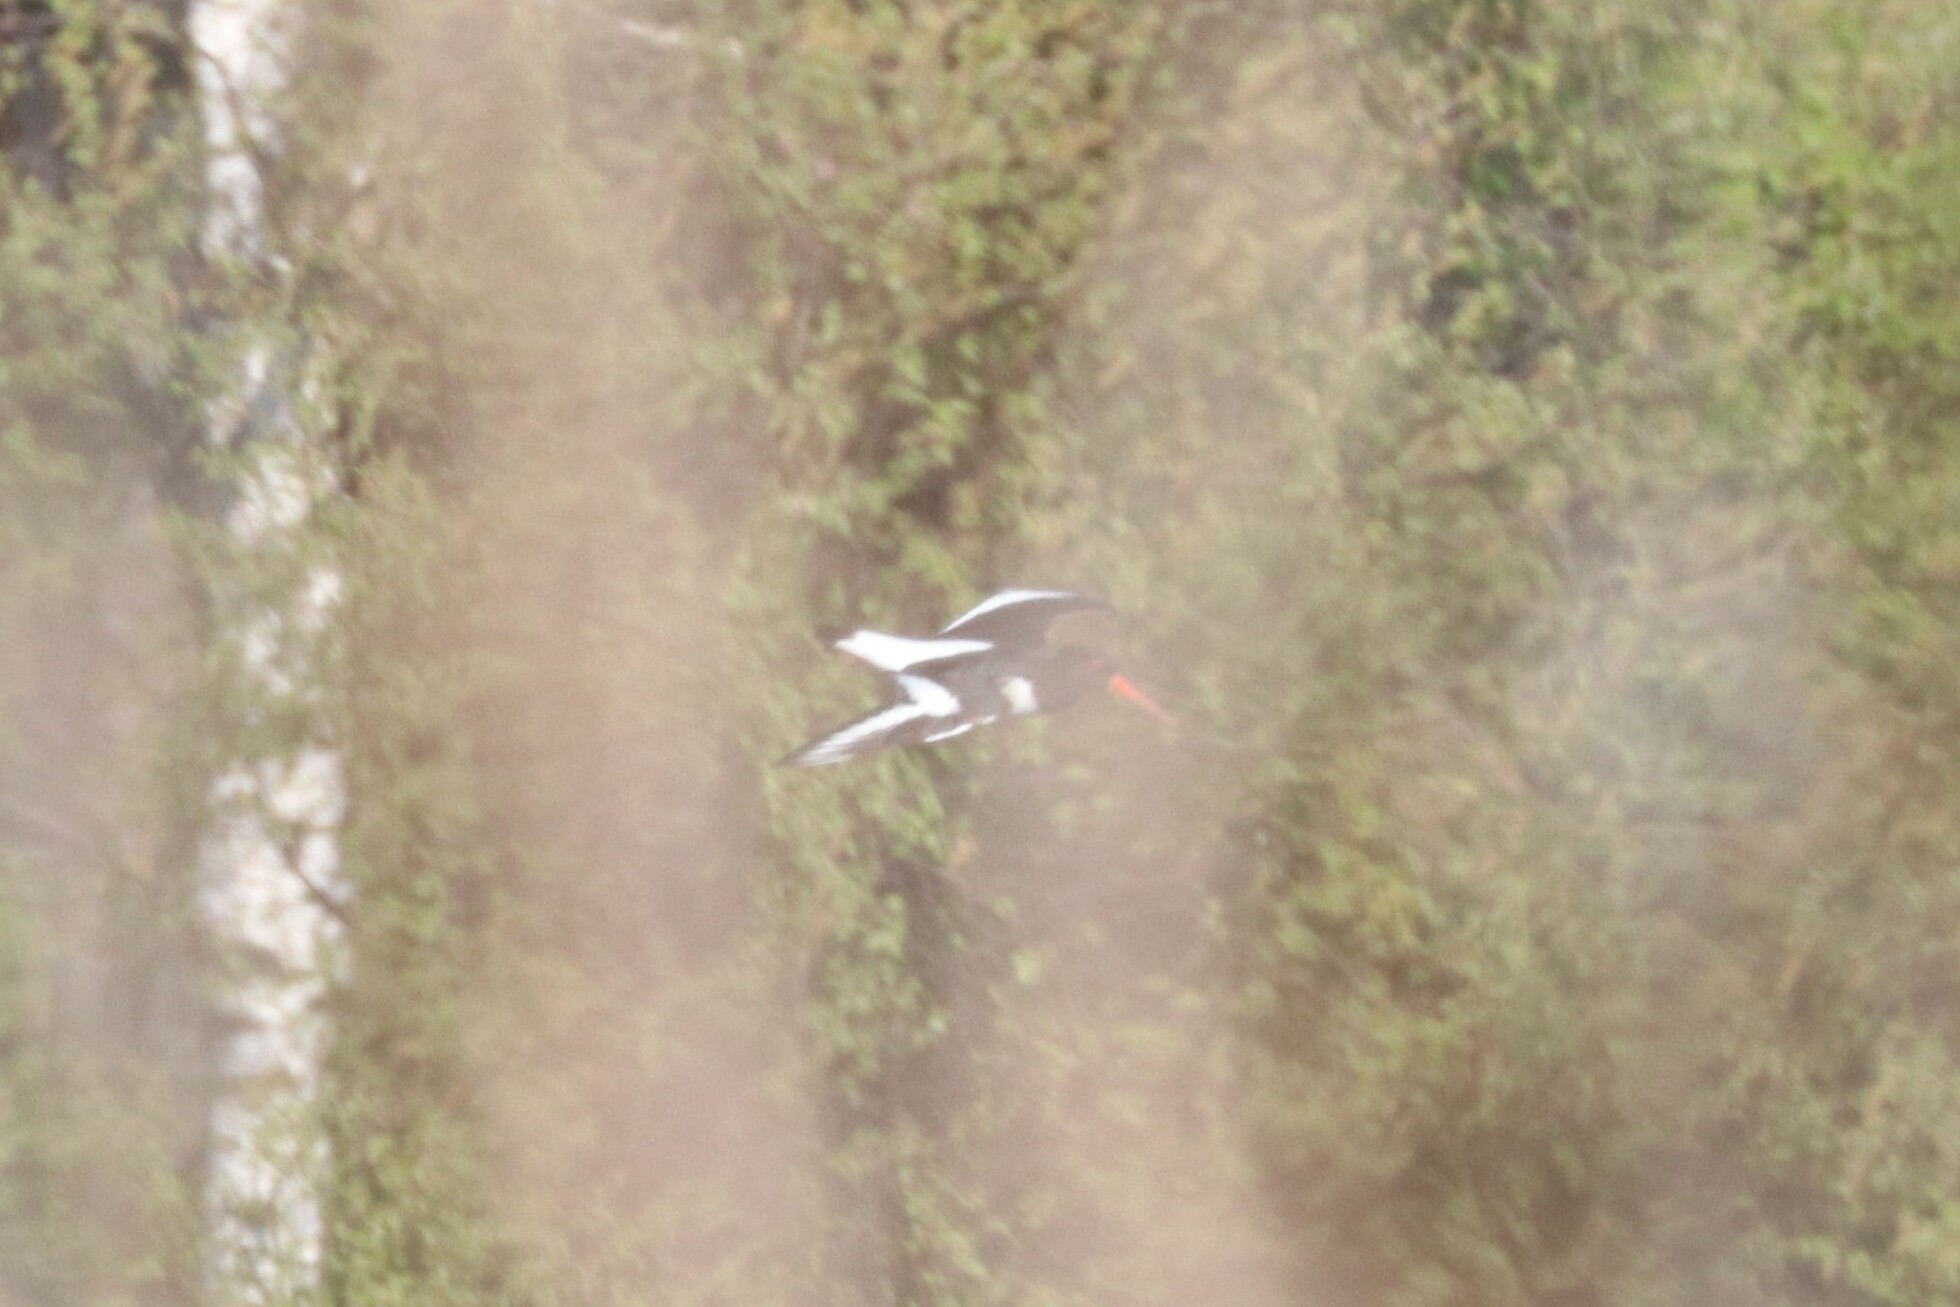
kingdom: Animalia
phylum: Chordata
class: Aves
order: Charadriiformes
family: Haematopodidae
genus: Haematopus
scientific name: Haematopus ostralegus
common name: Eurasian oystercatcher
